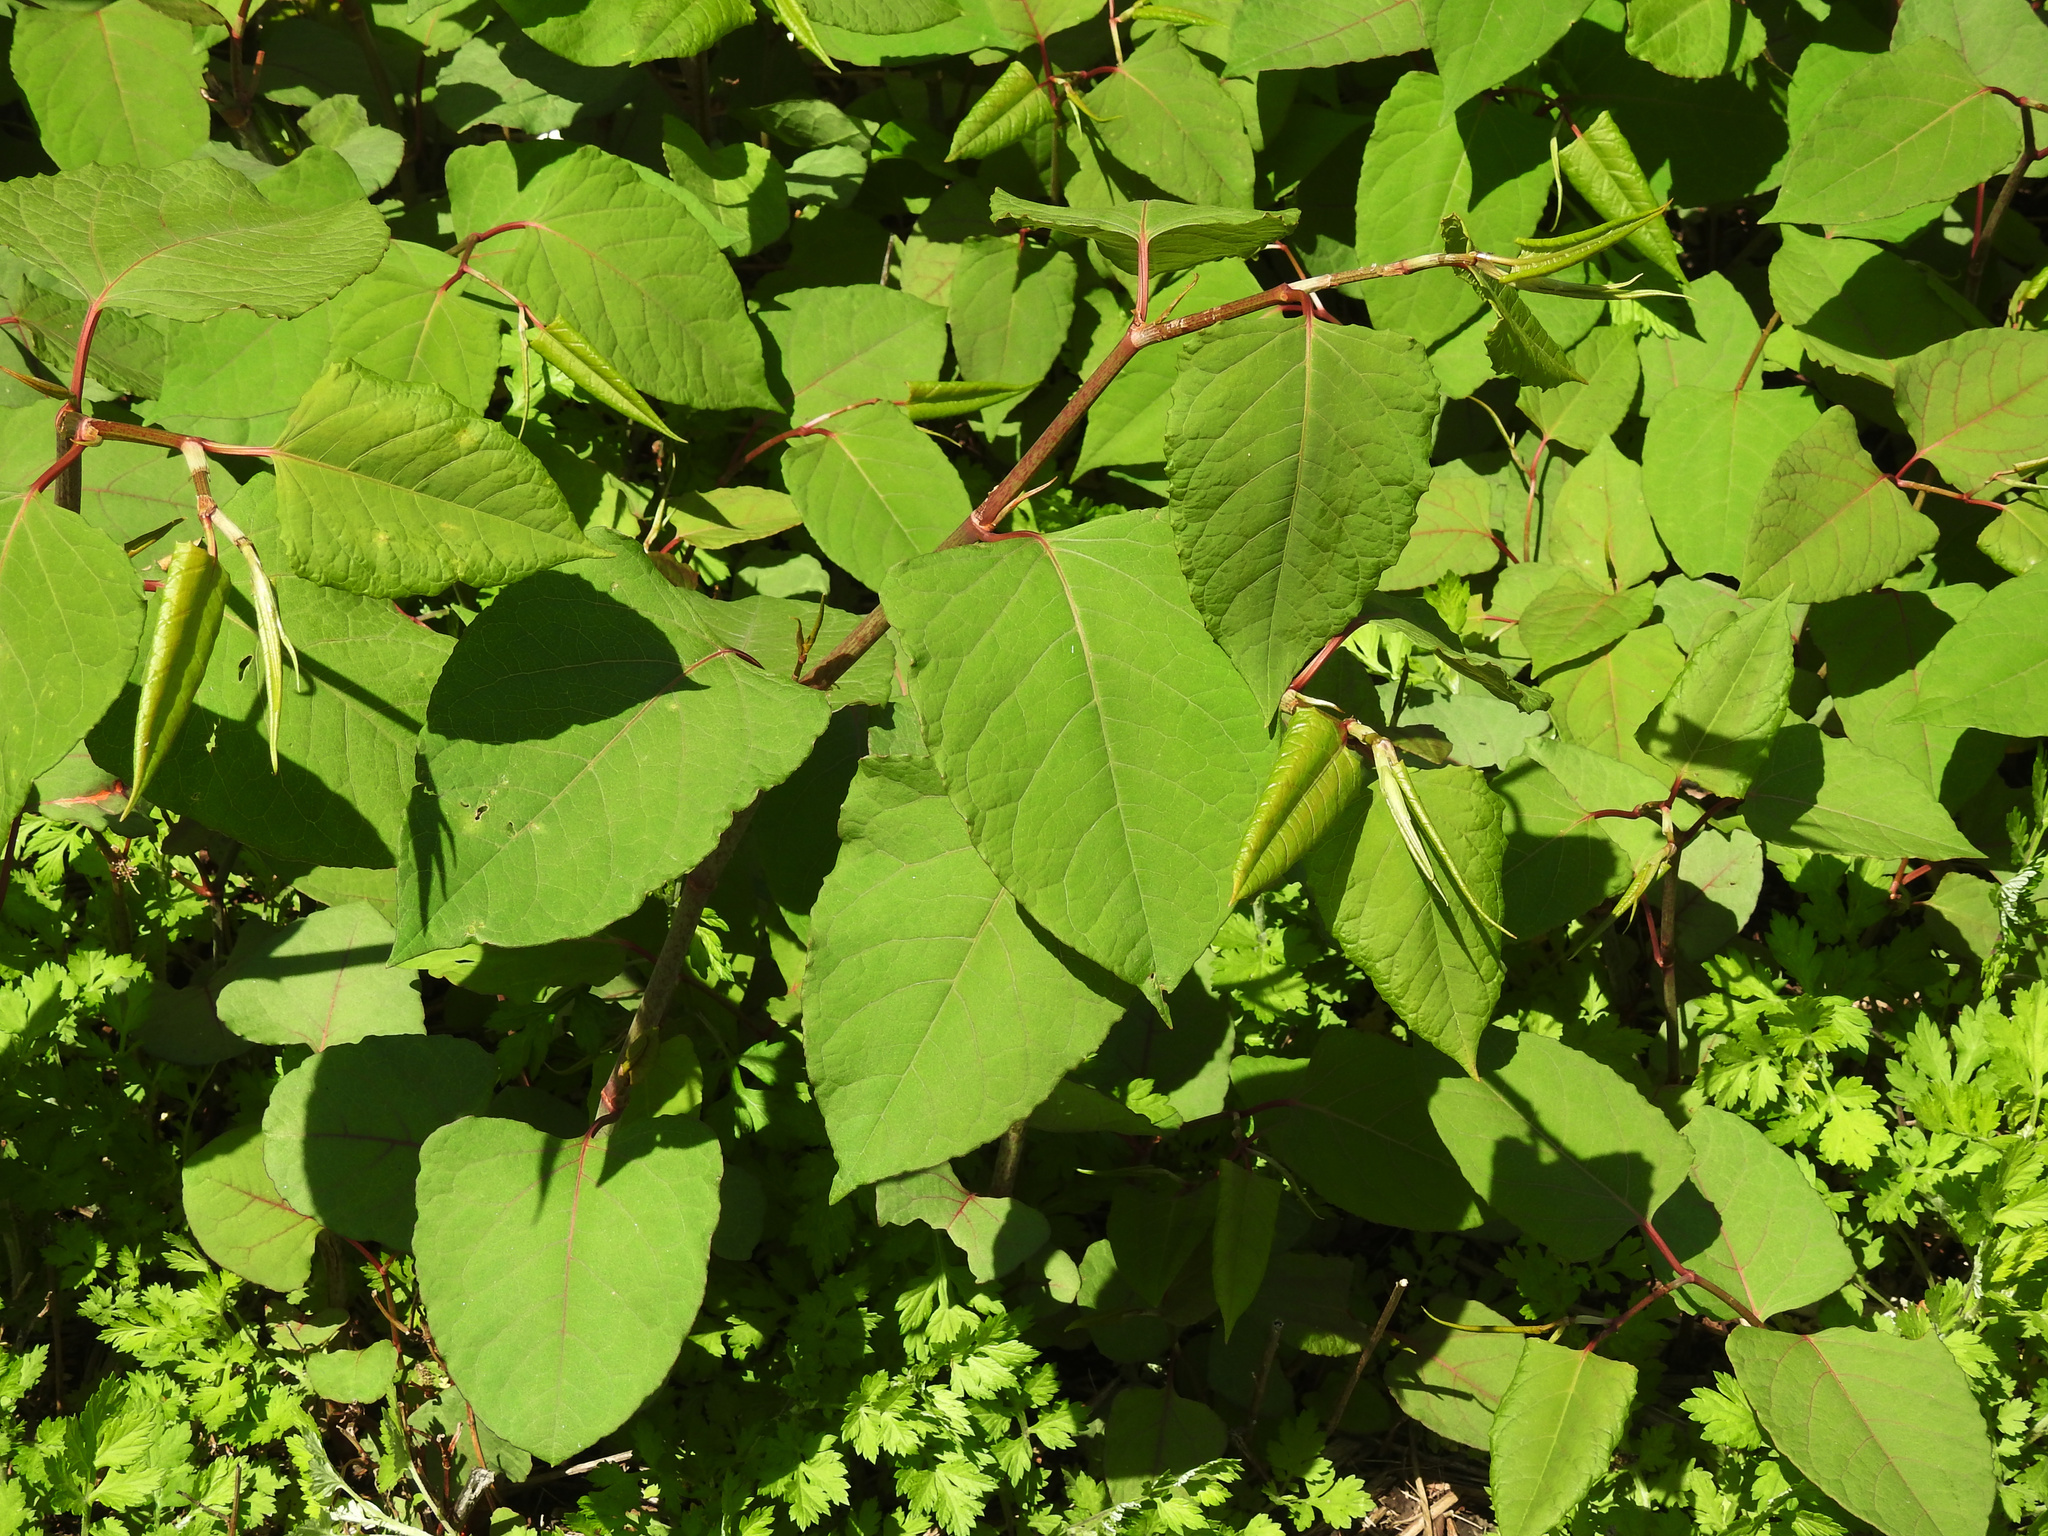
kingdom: Plantae
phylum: Tracheophyta
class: Magnoliopsida
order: Caryophyllales
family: Polygonaceae
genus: Reynoutria
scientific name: Reynoutria japonica
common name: Japanese knotweed
